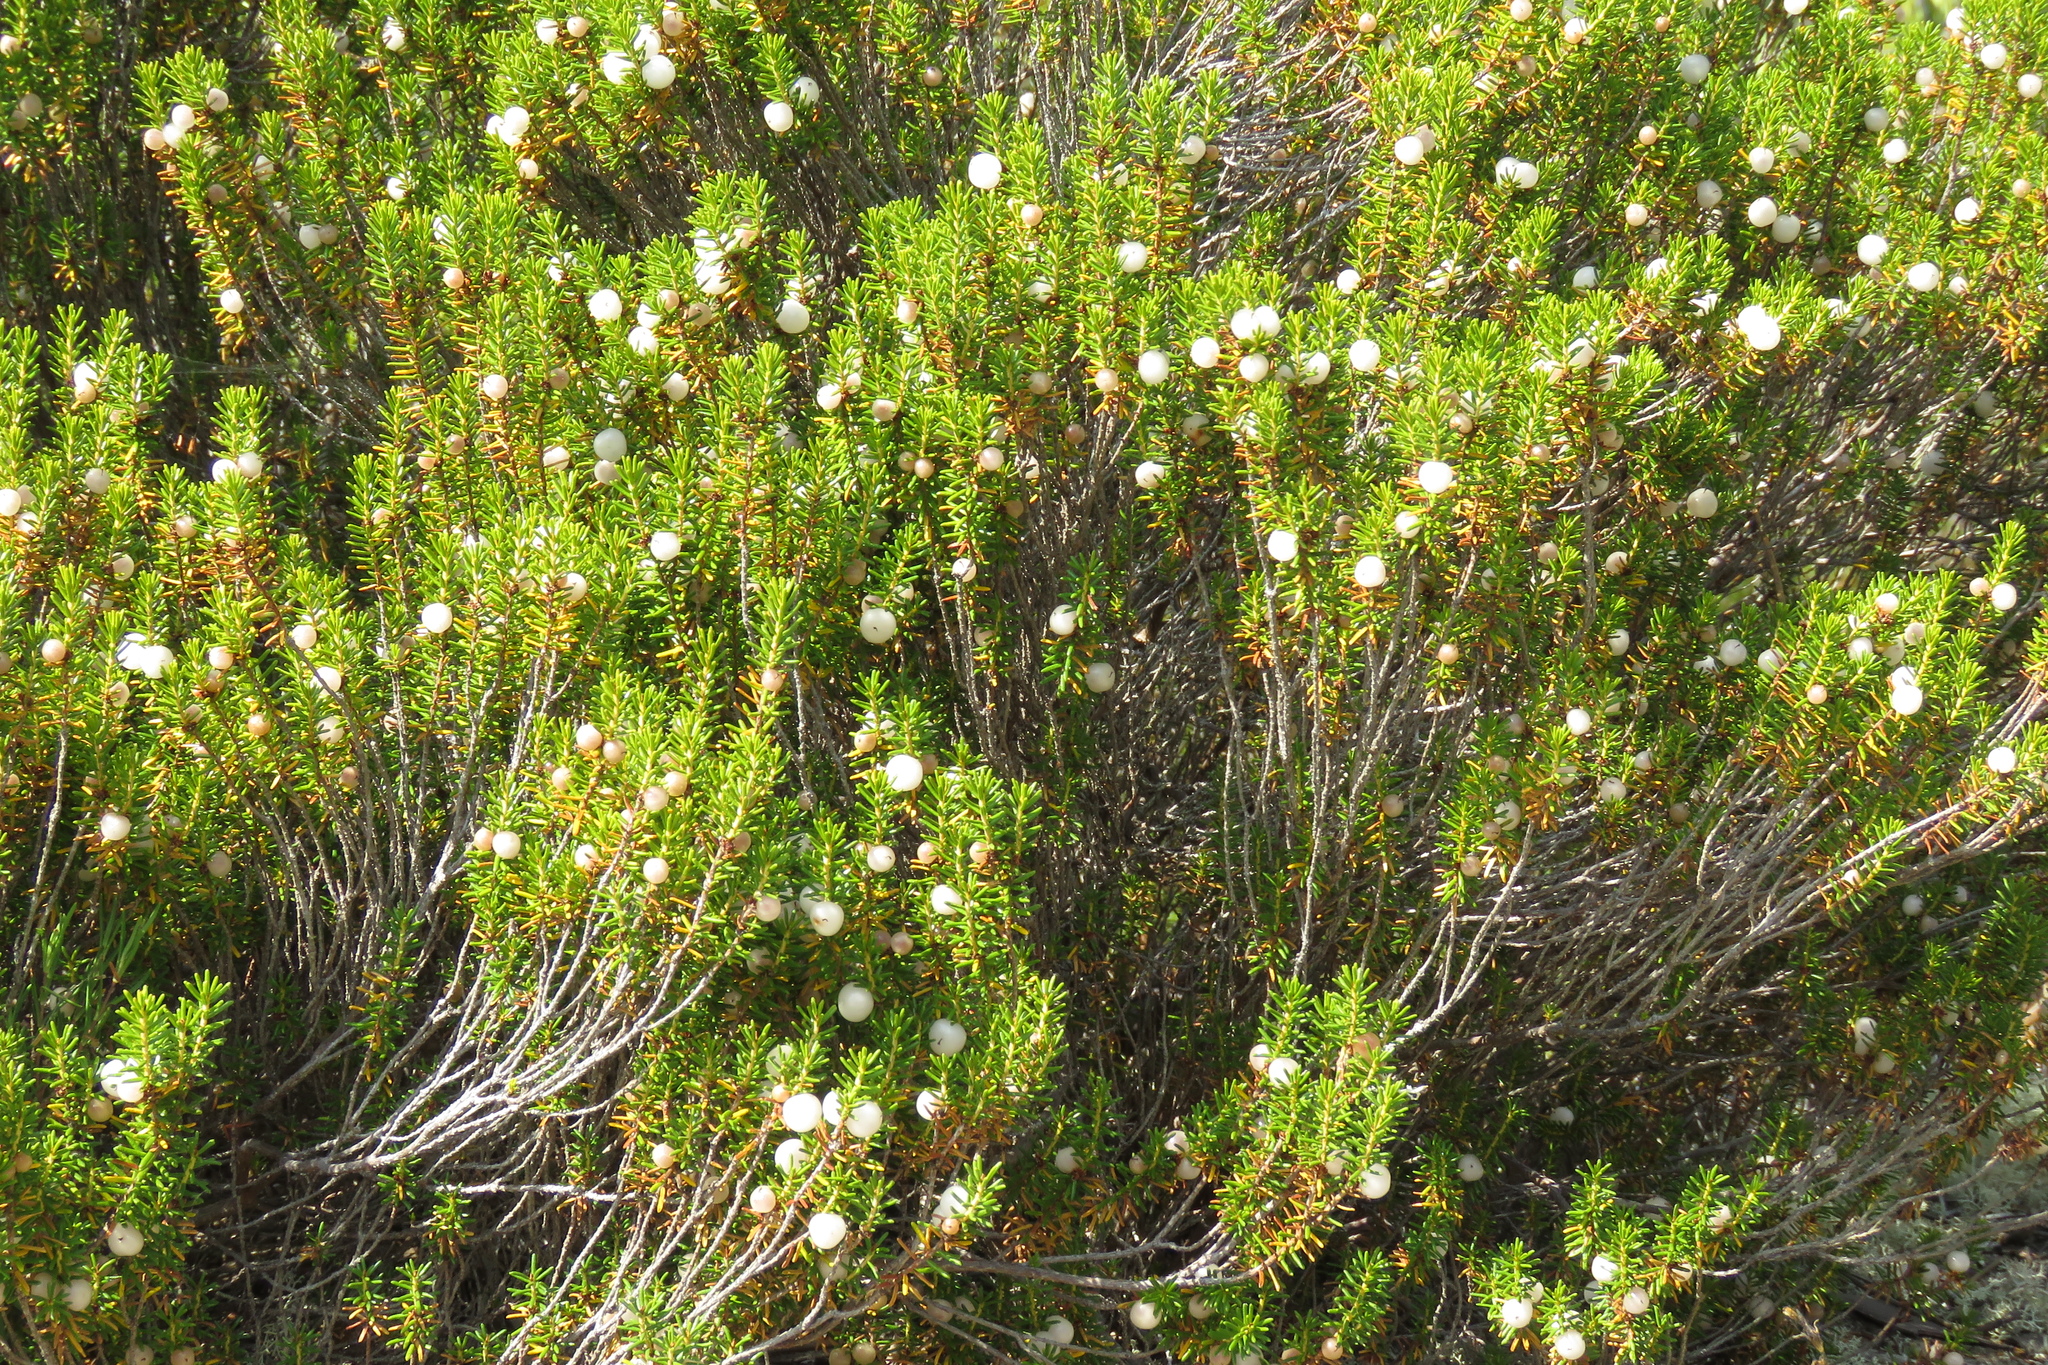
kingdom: Plantae
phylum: Tracheophyta
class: Magnoliopsida
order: Ericales
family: Ericaceae
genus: Corema
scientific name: Corema album
